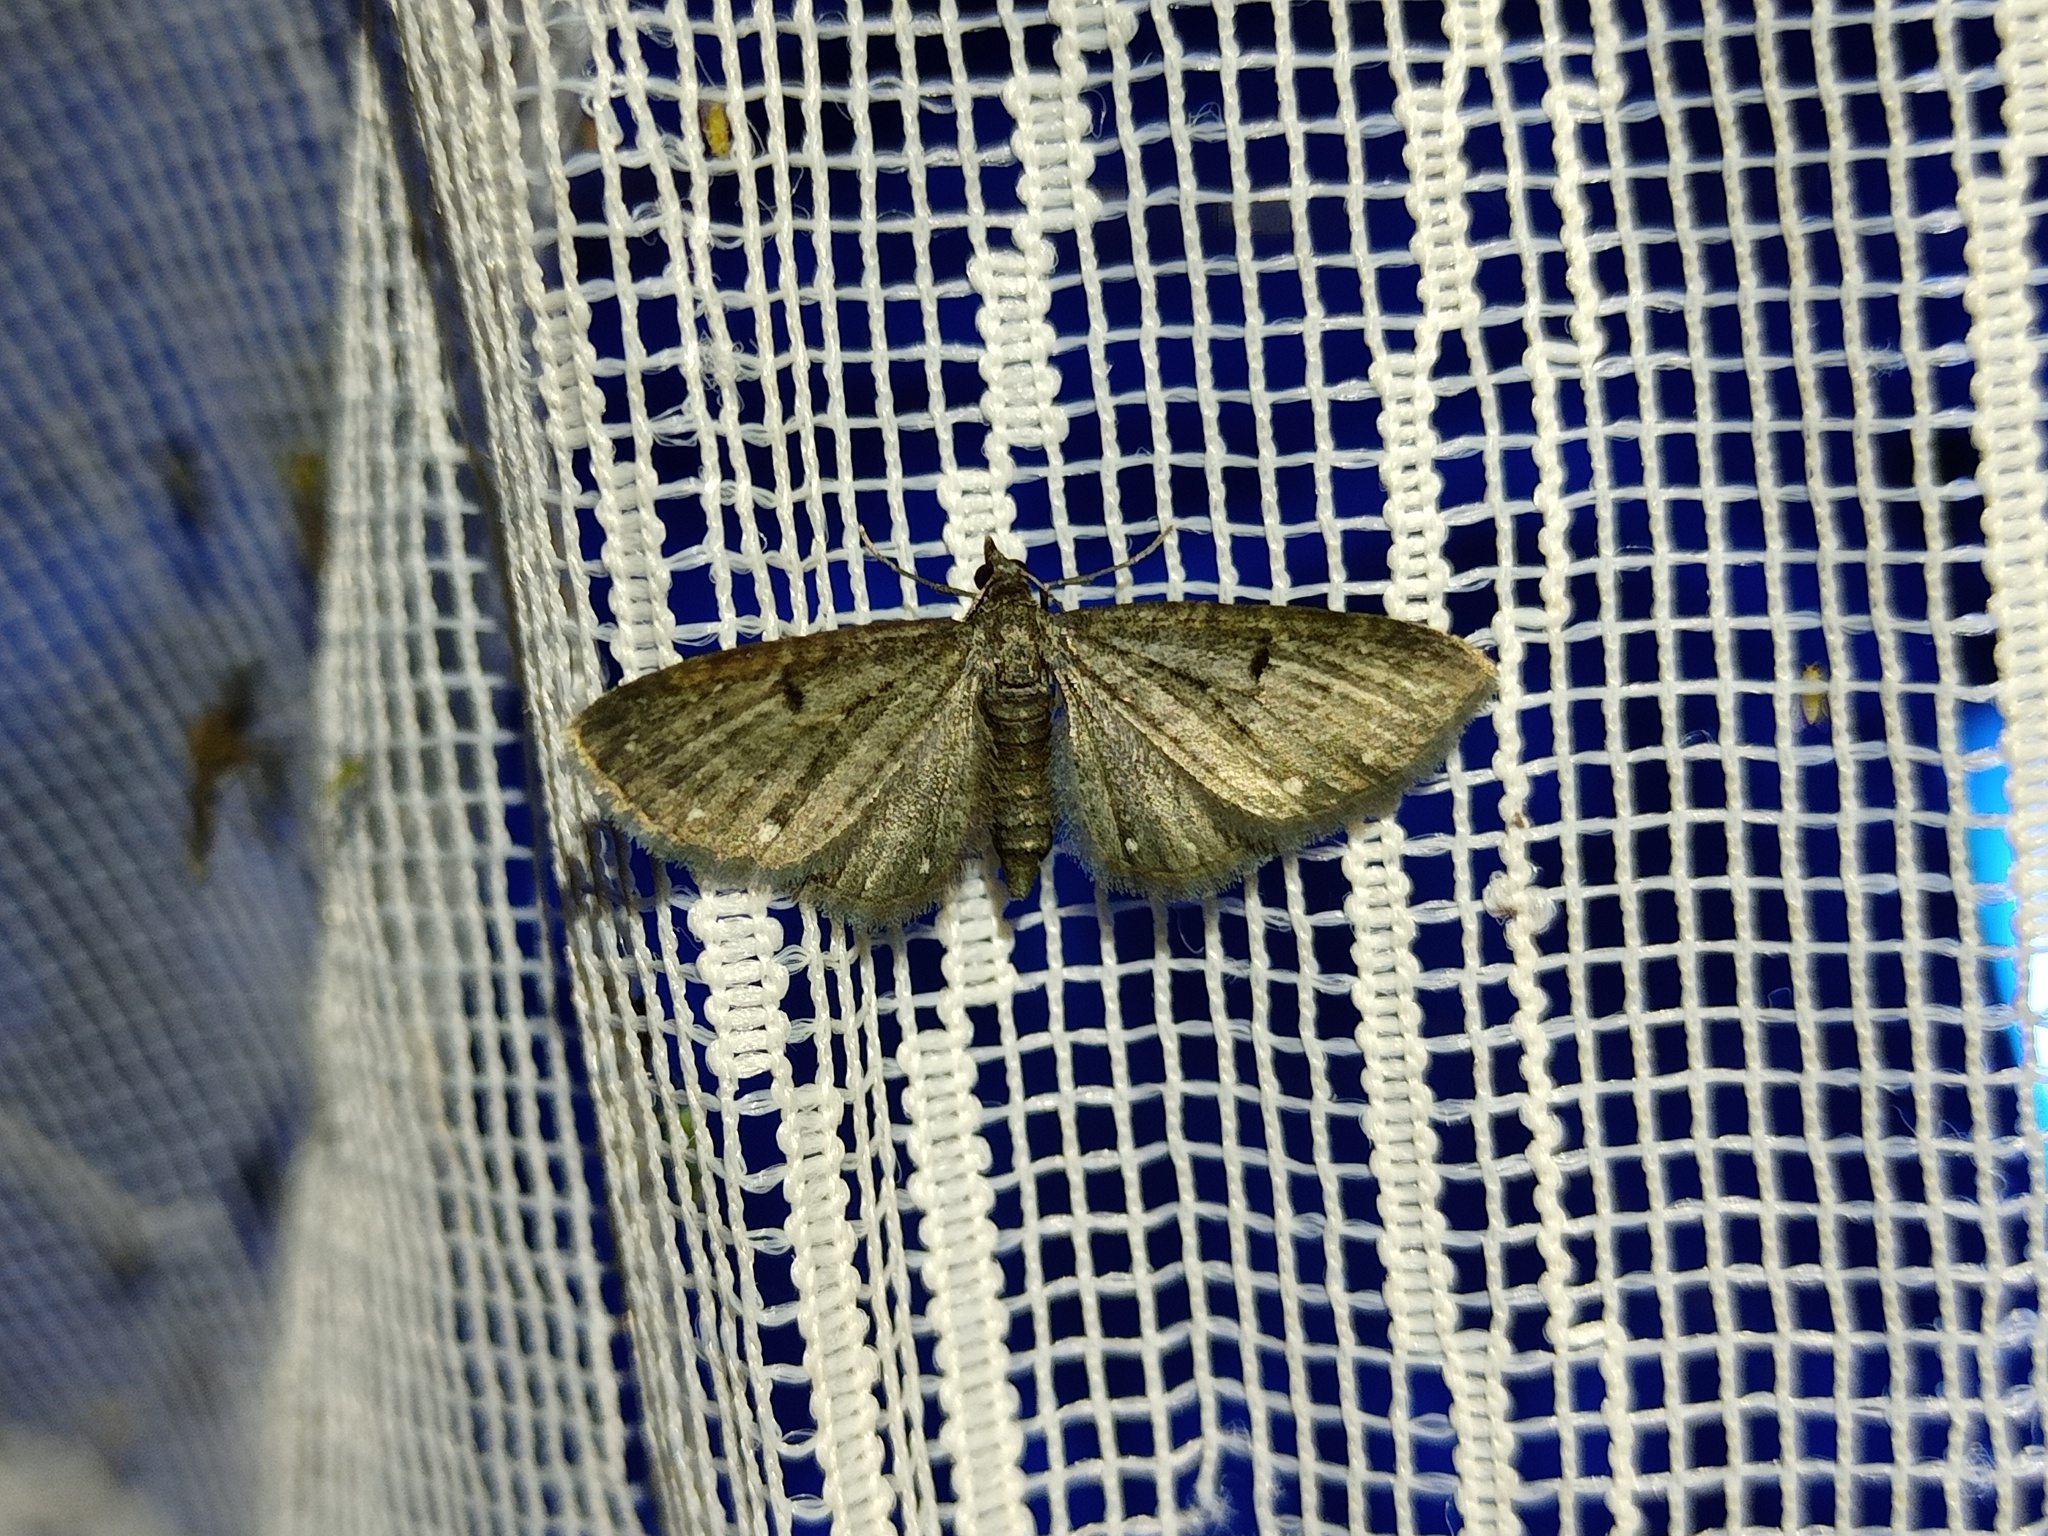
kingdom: Animalia
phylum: Arthropoda
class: Insecta
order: Lepidoptera
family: Geometridae
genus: Eupithecia
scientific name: Eupithecia tripunctaria
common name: White-spotted pug
